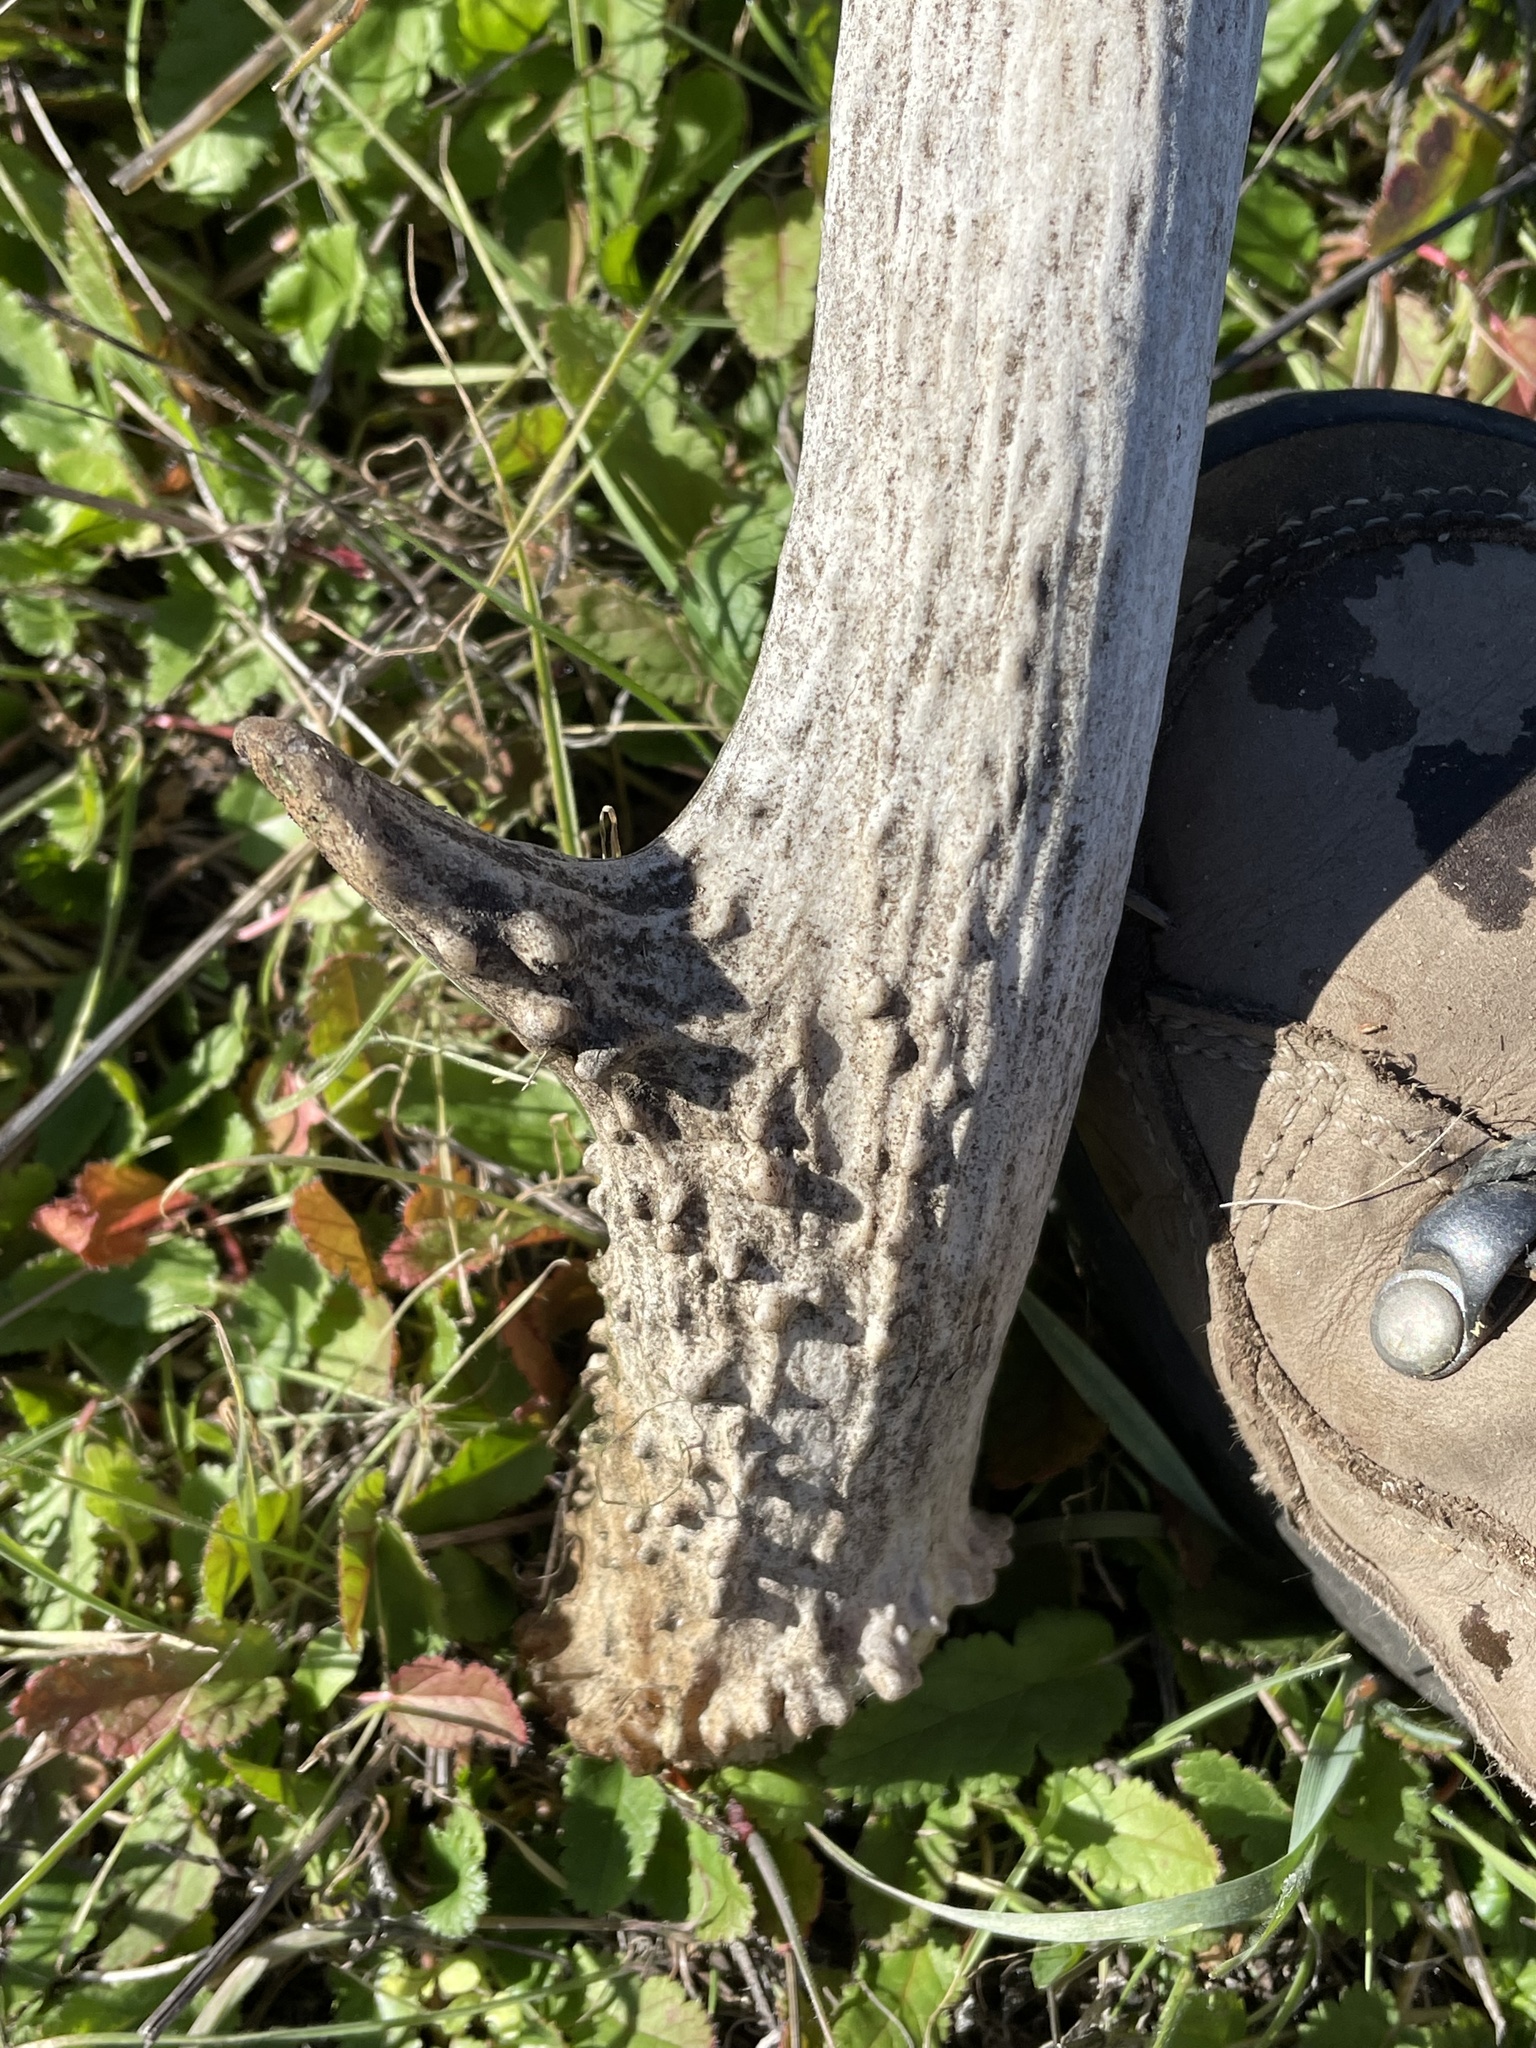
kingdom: Animalia
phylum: Chordata
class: Mammalia
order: Artiodactyla
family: Cervidae
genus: Odocoileus
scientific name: Odocoileus hemionus
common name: Mule deer
